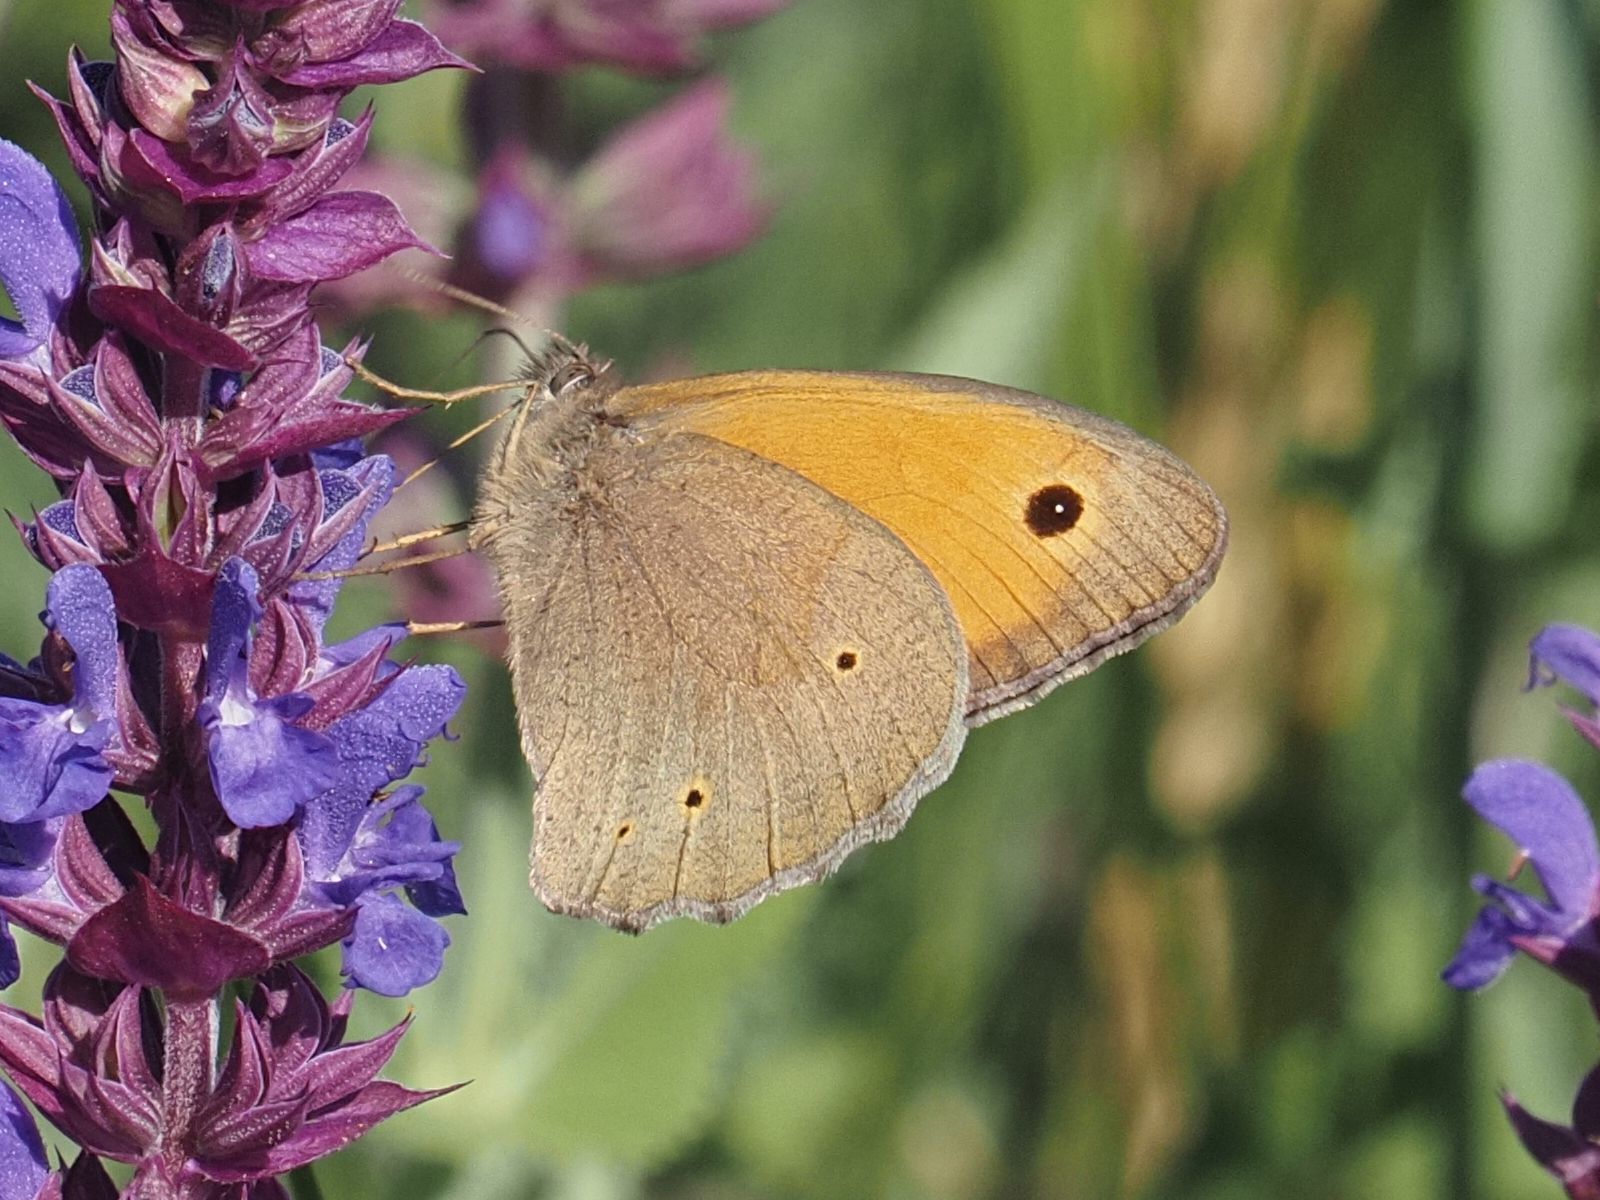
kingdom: Animalia
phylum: Arthropoda
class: Insecta
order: Lepidoptera
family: Nymphalidae
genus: Maniola
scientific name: Maniola jurtina
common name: Meadow brown
